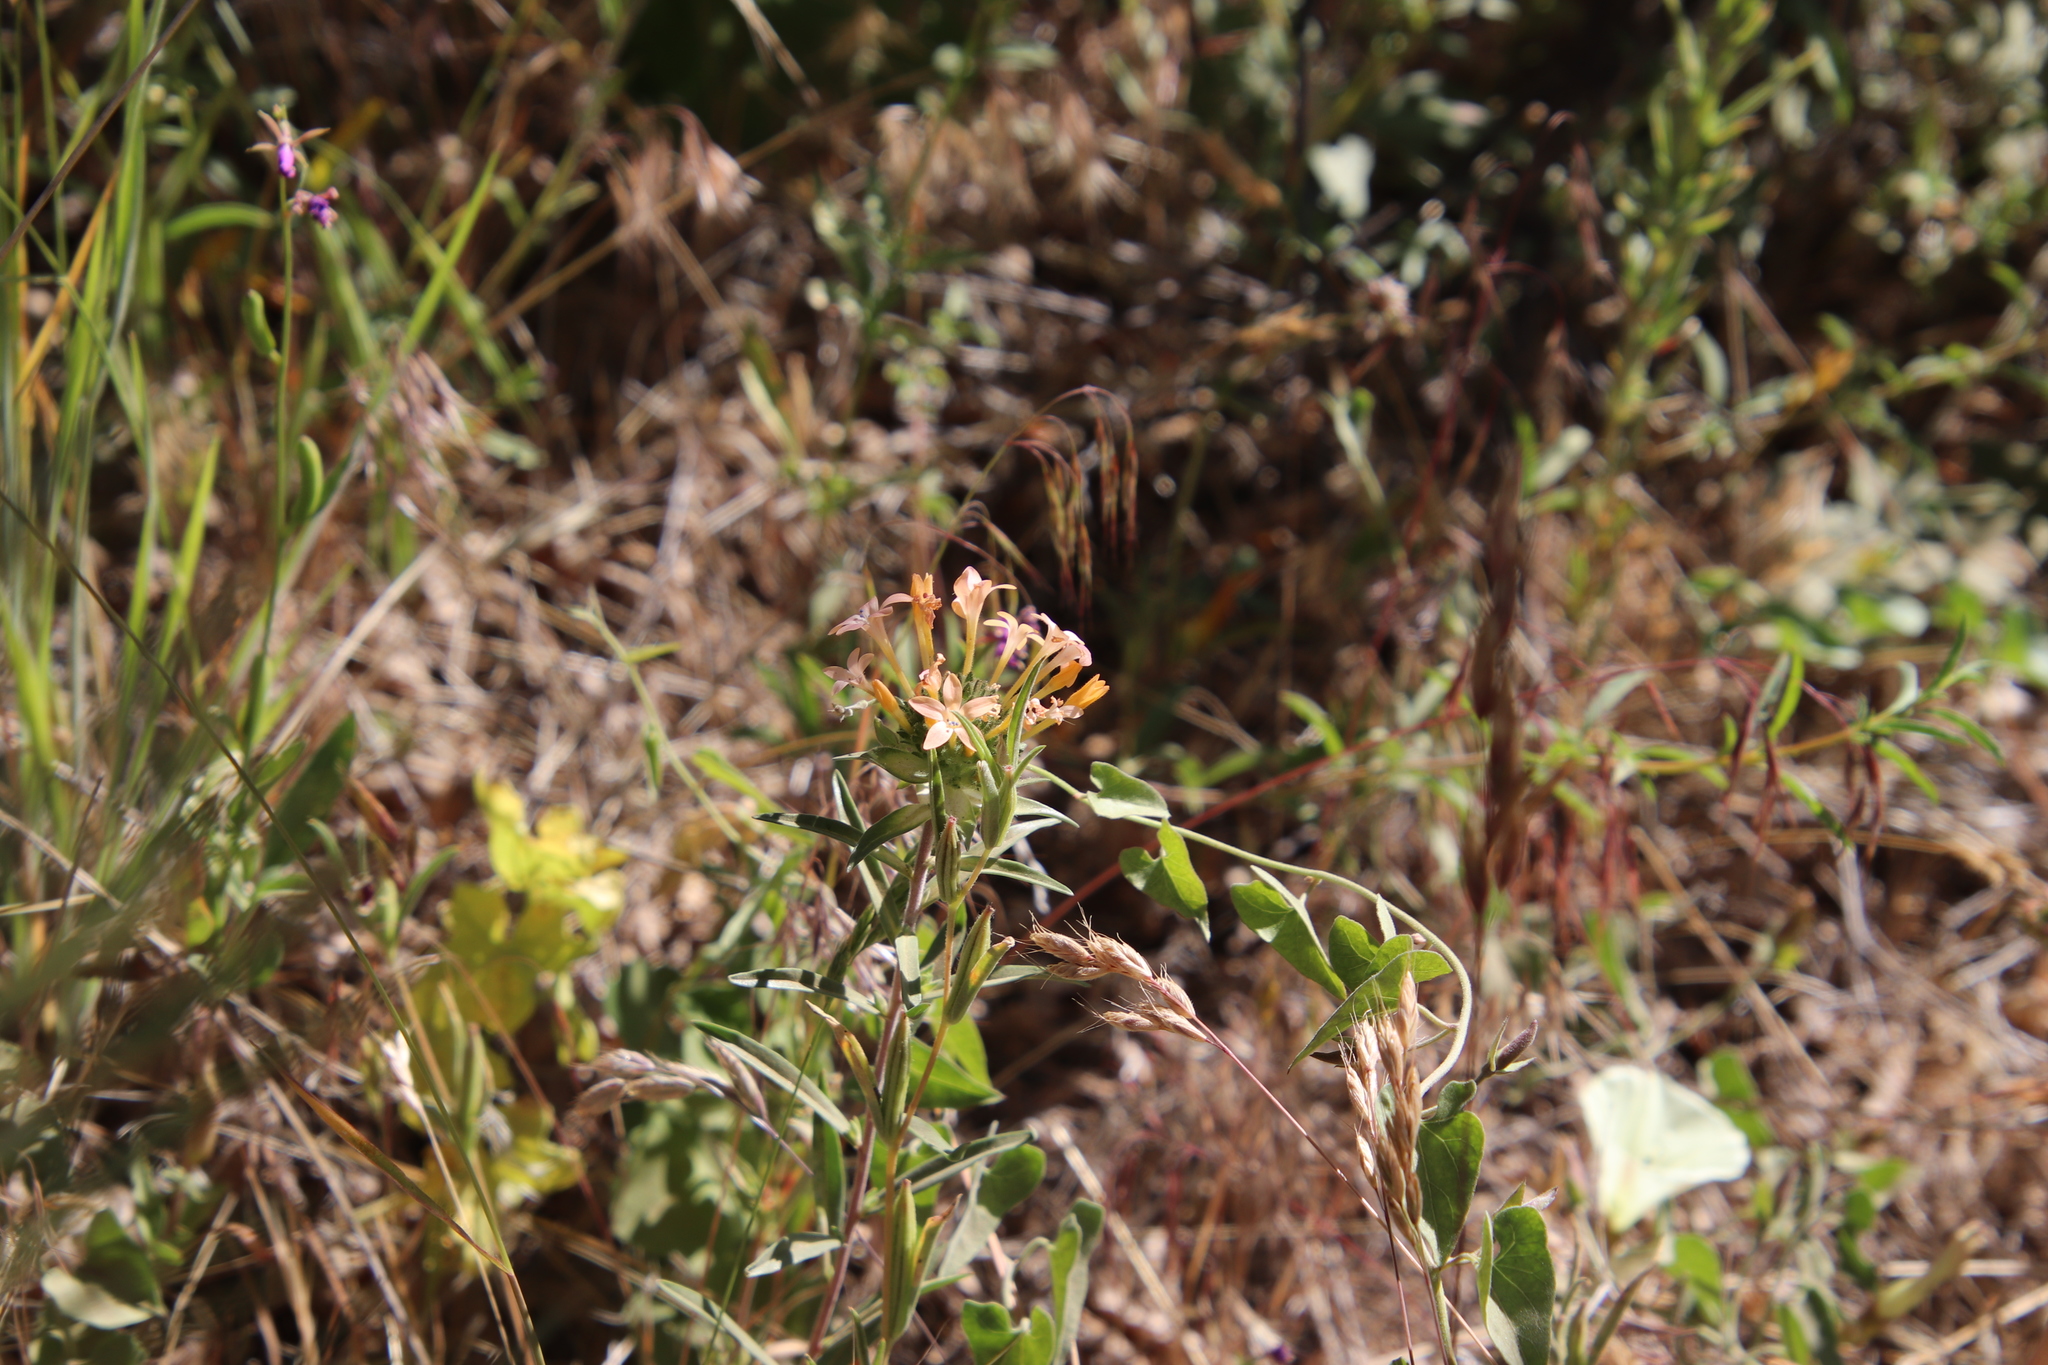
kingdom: Plantae
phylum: Tracheophyta
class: Magnoliopsida
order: Ericales
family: Polemoniaceae
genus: Collomia
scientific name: Collomia grandiflora
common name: California strawflower
